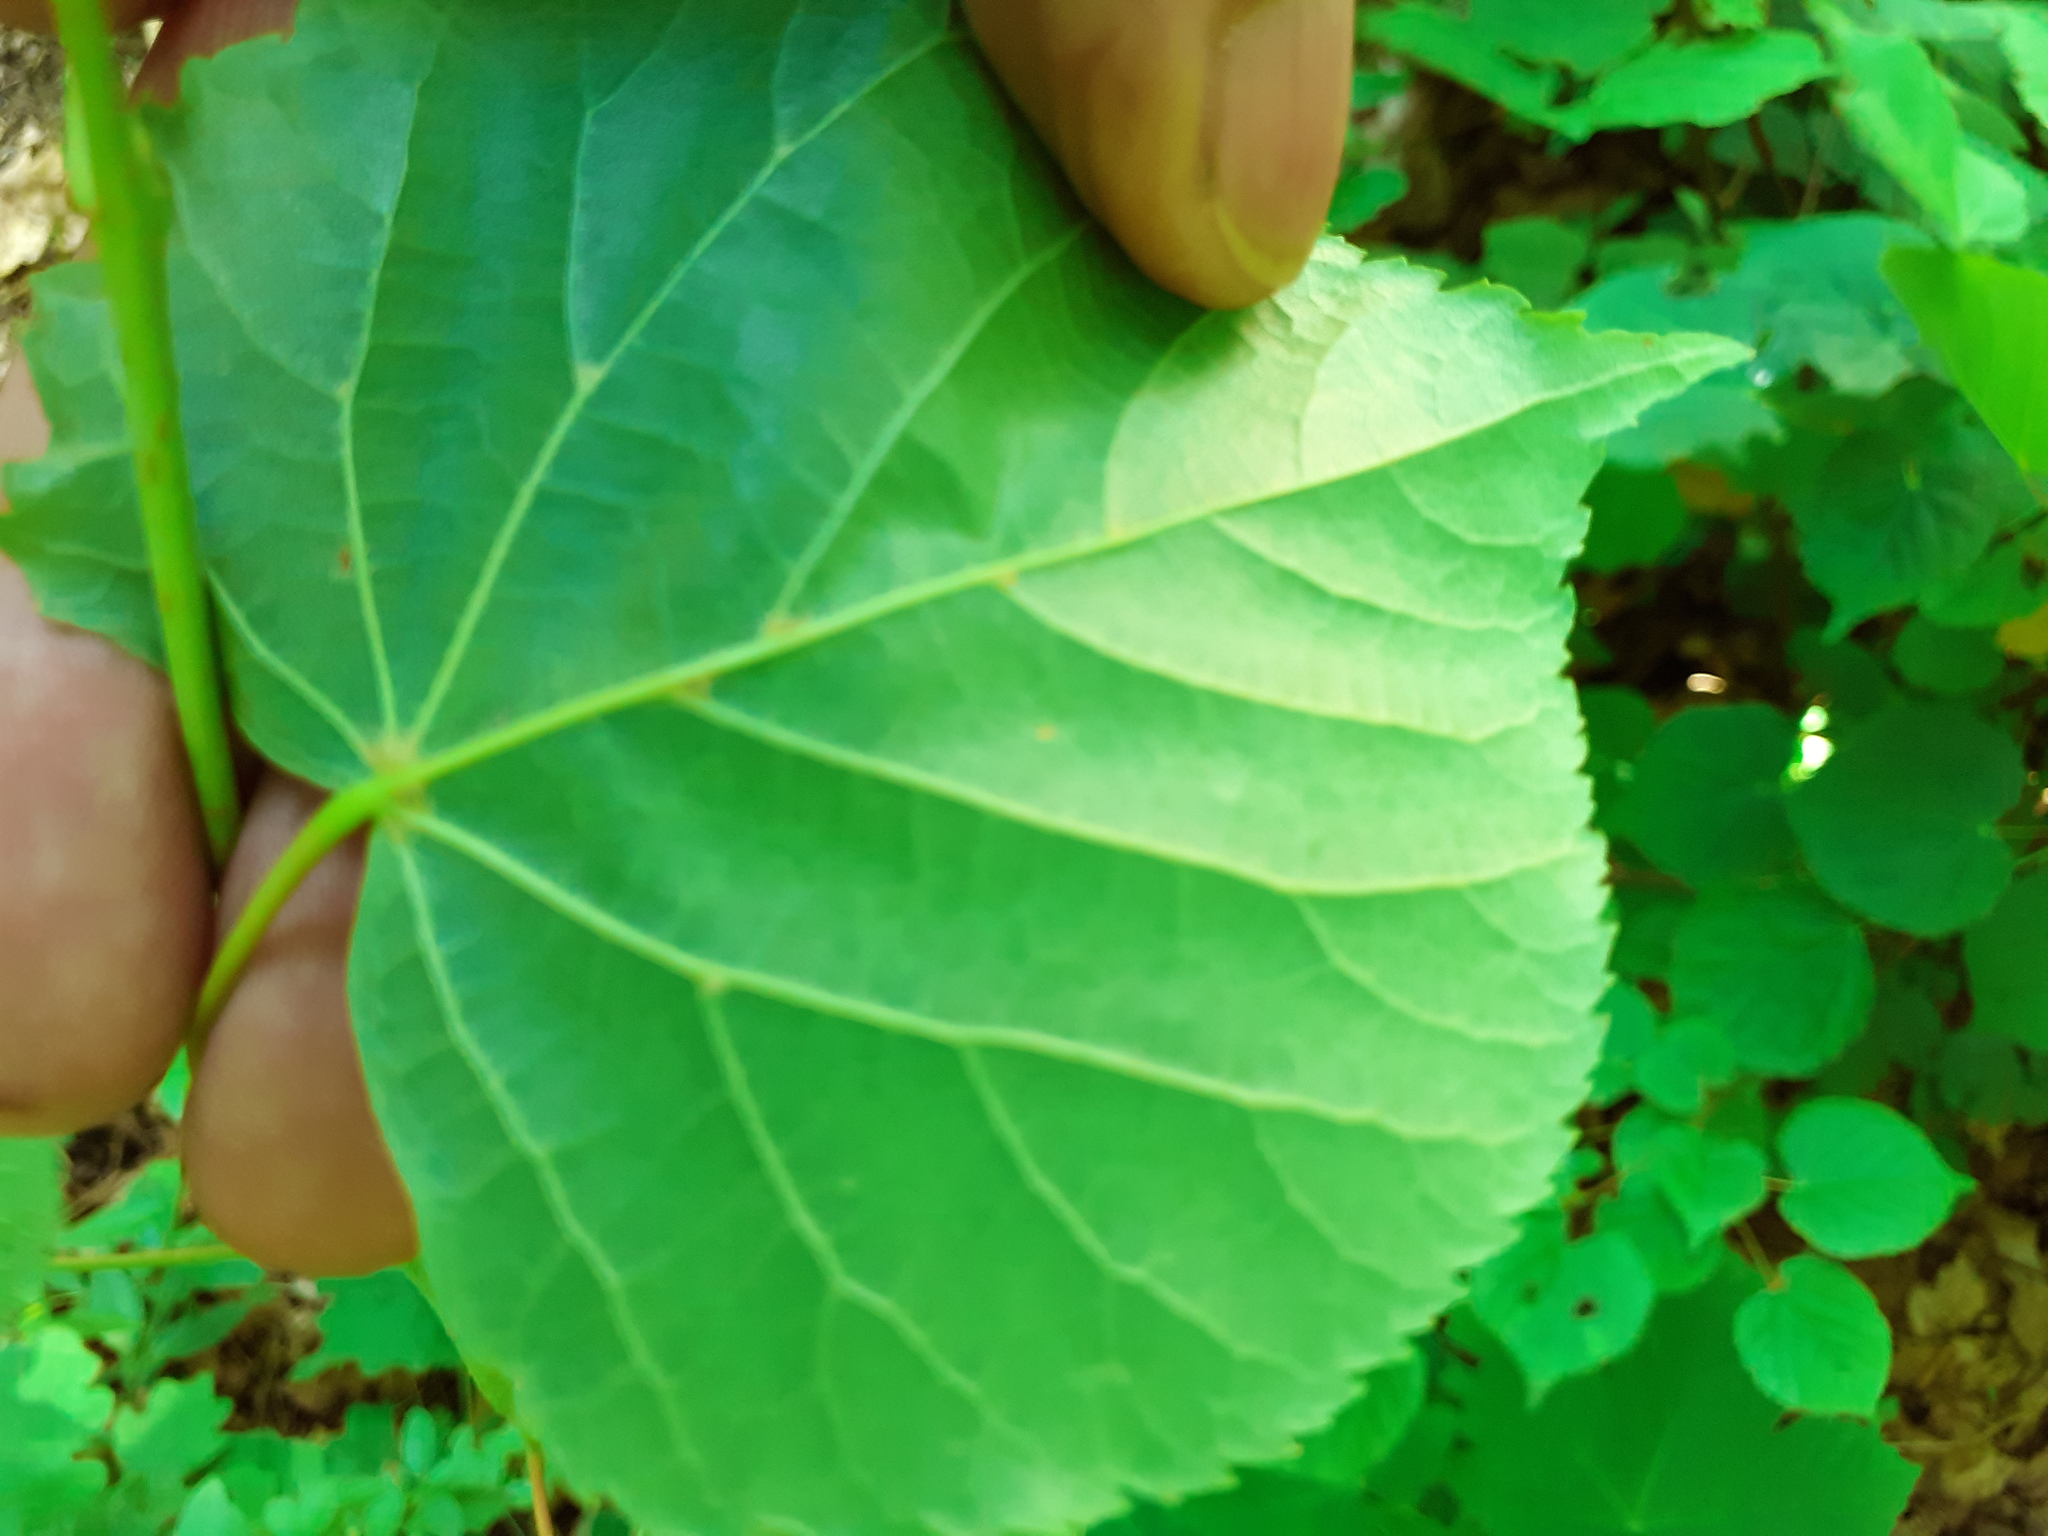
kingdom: Plantae
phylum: Tracheophyta
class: Magnoliopsida
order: Malvales
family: Malvaceae
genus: Tilia
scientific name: Tilia cordata
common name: Small-leaved lime
